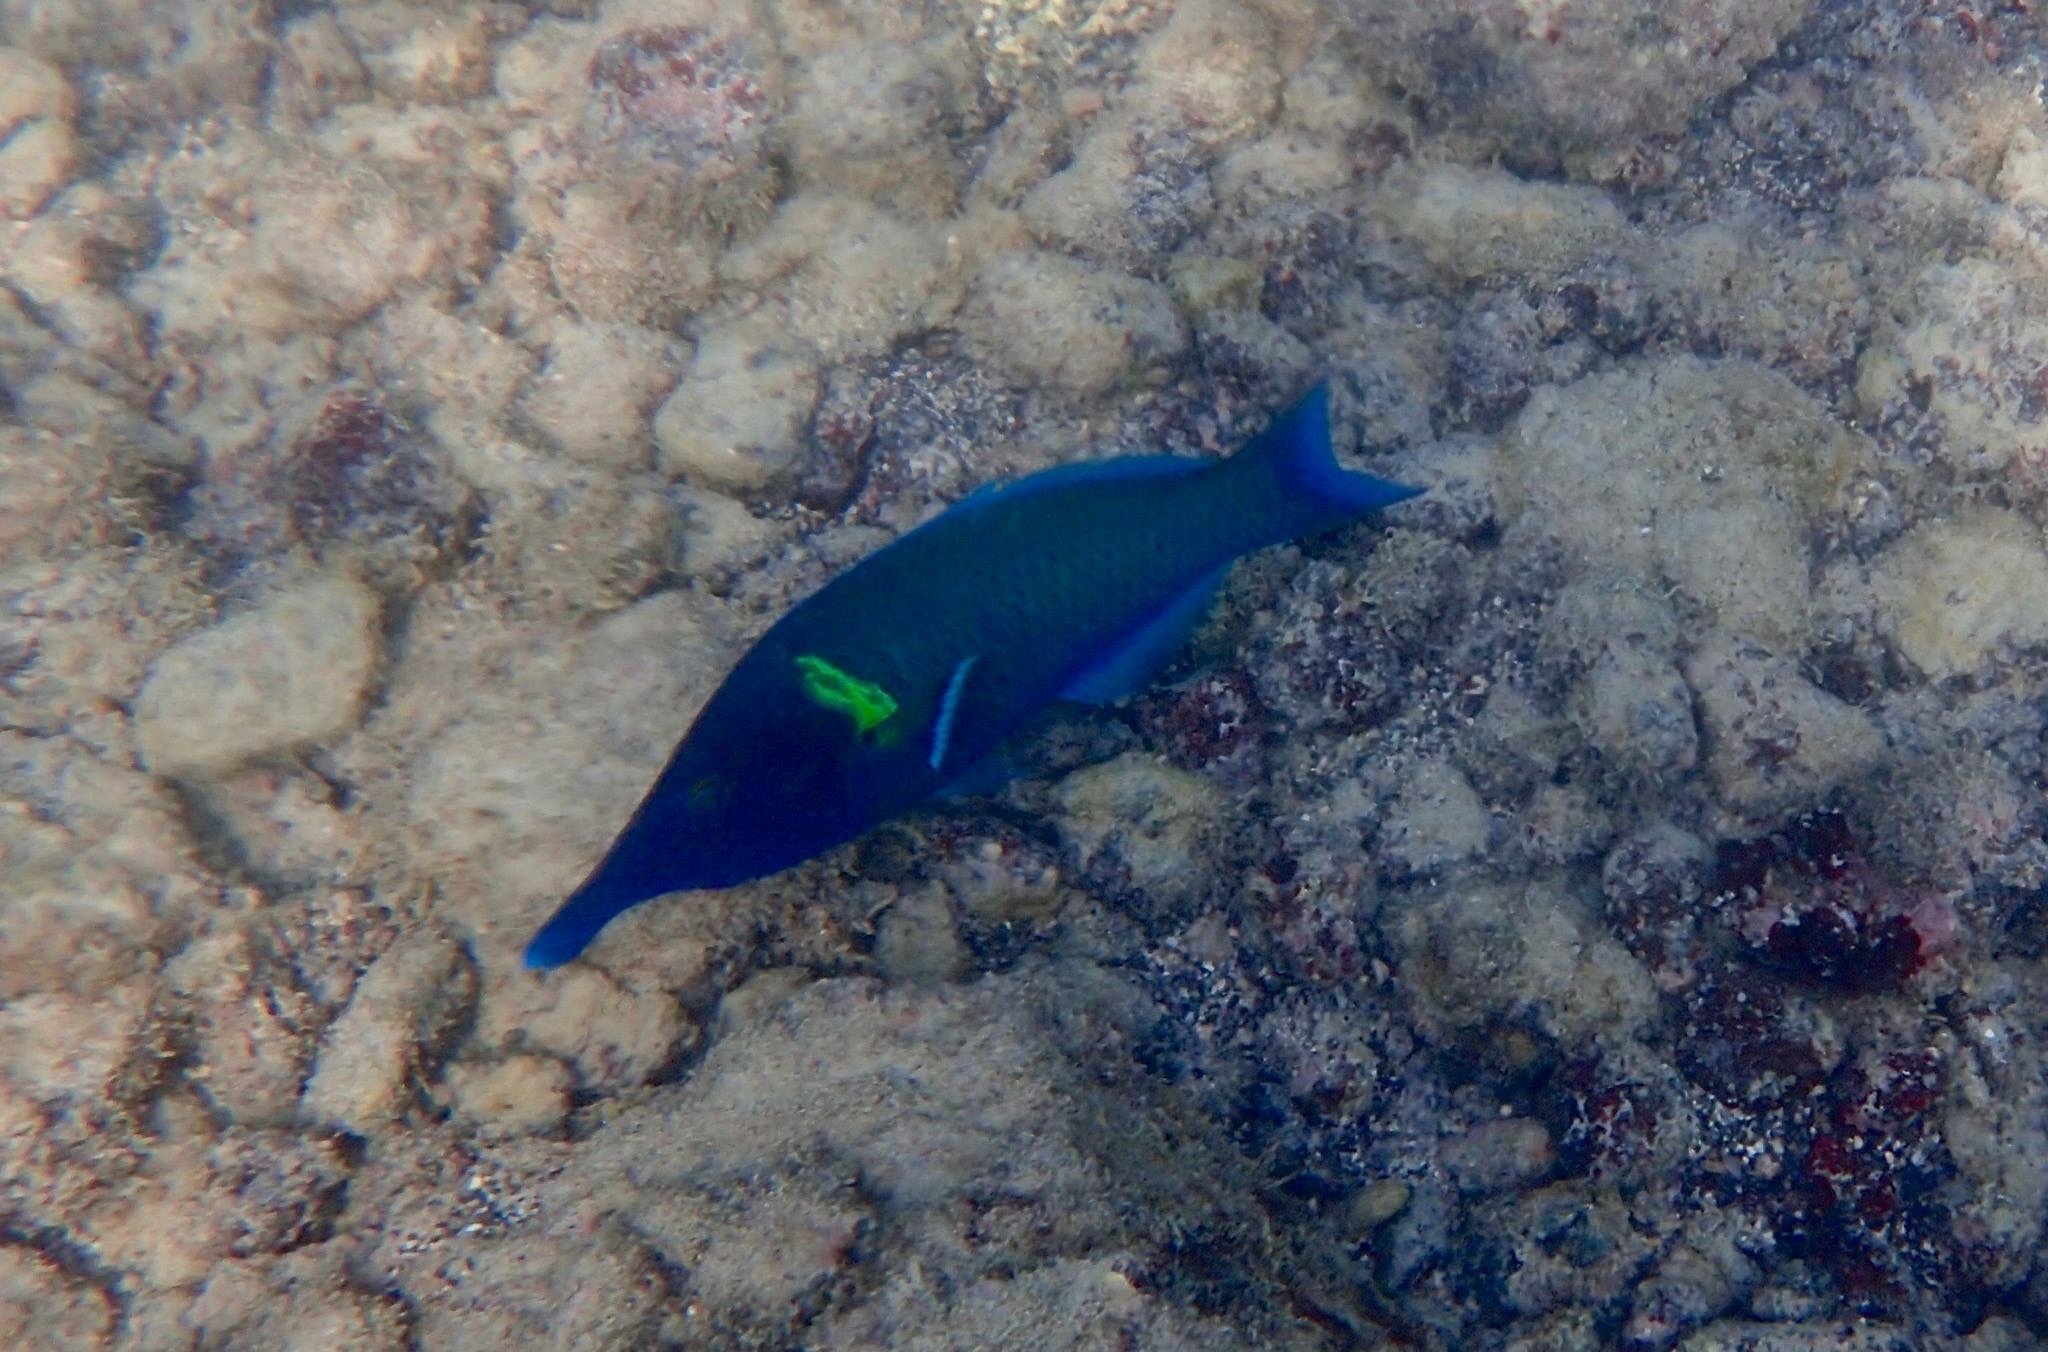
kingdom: Animalia
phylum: Chordata
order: Perciformes
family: Labridae
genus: Gomphosus
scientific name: Gomphosus varius
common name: Bird wrasse
